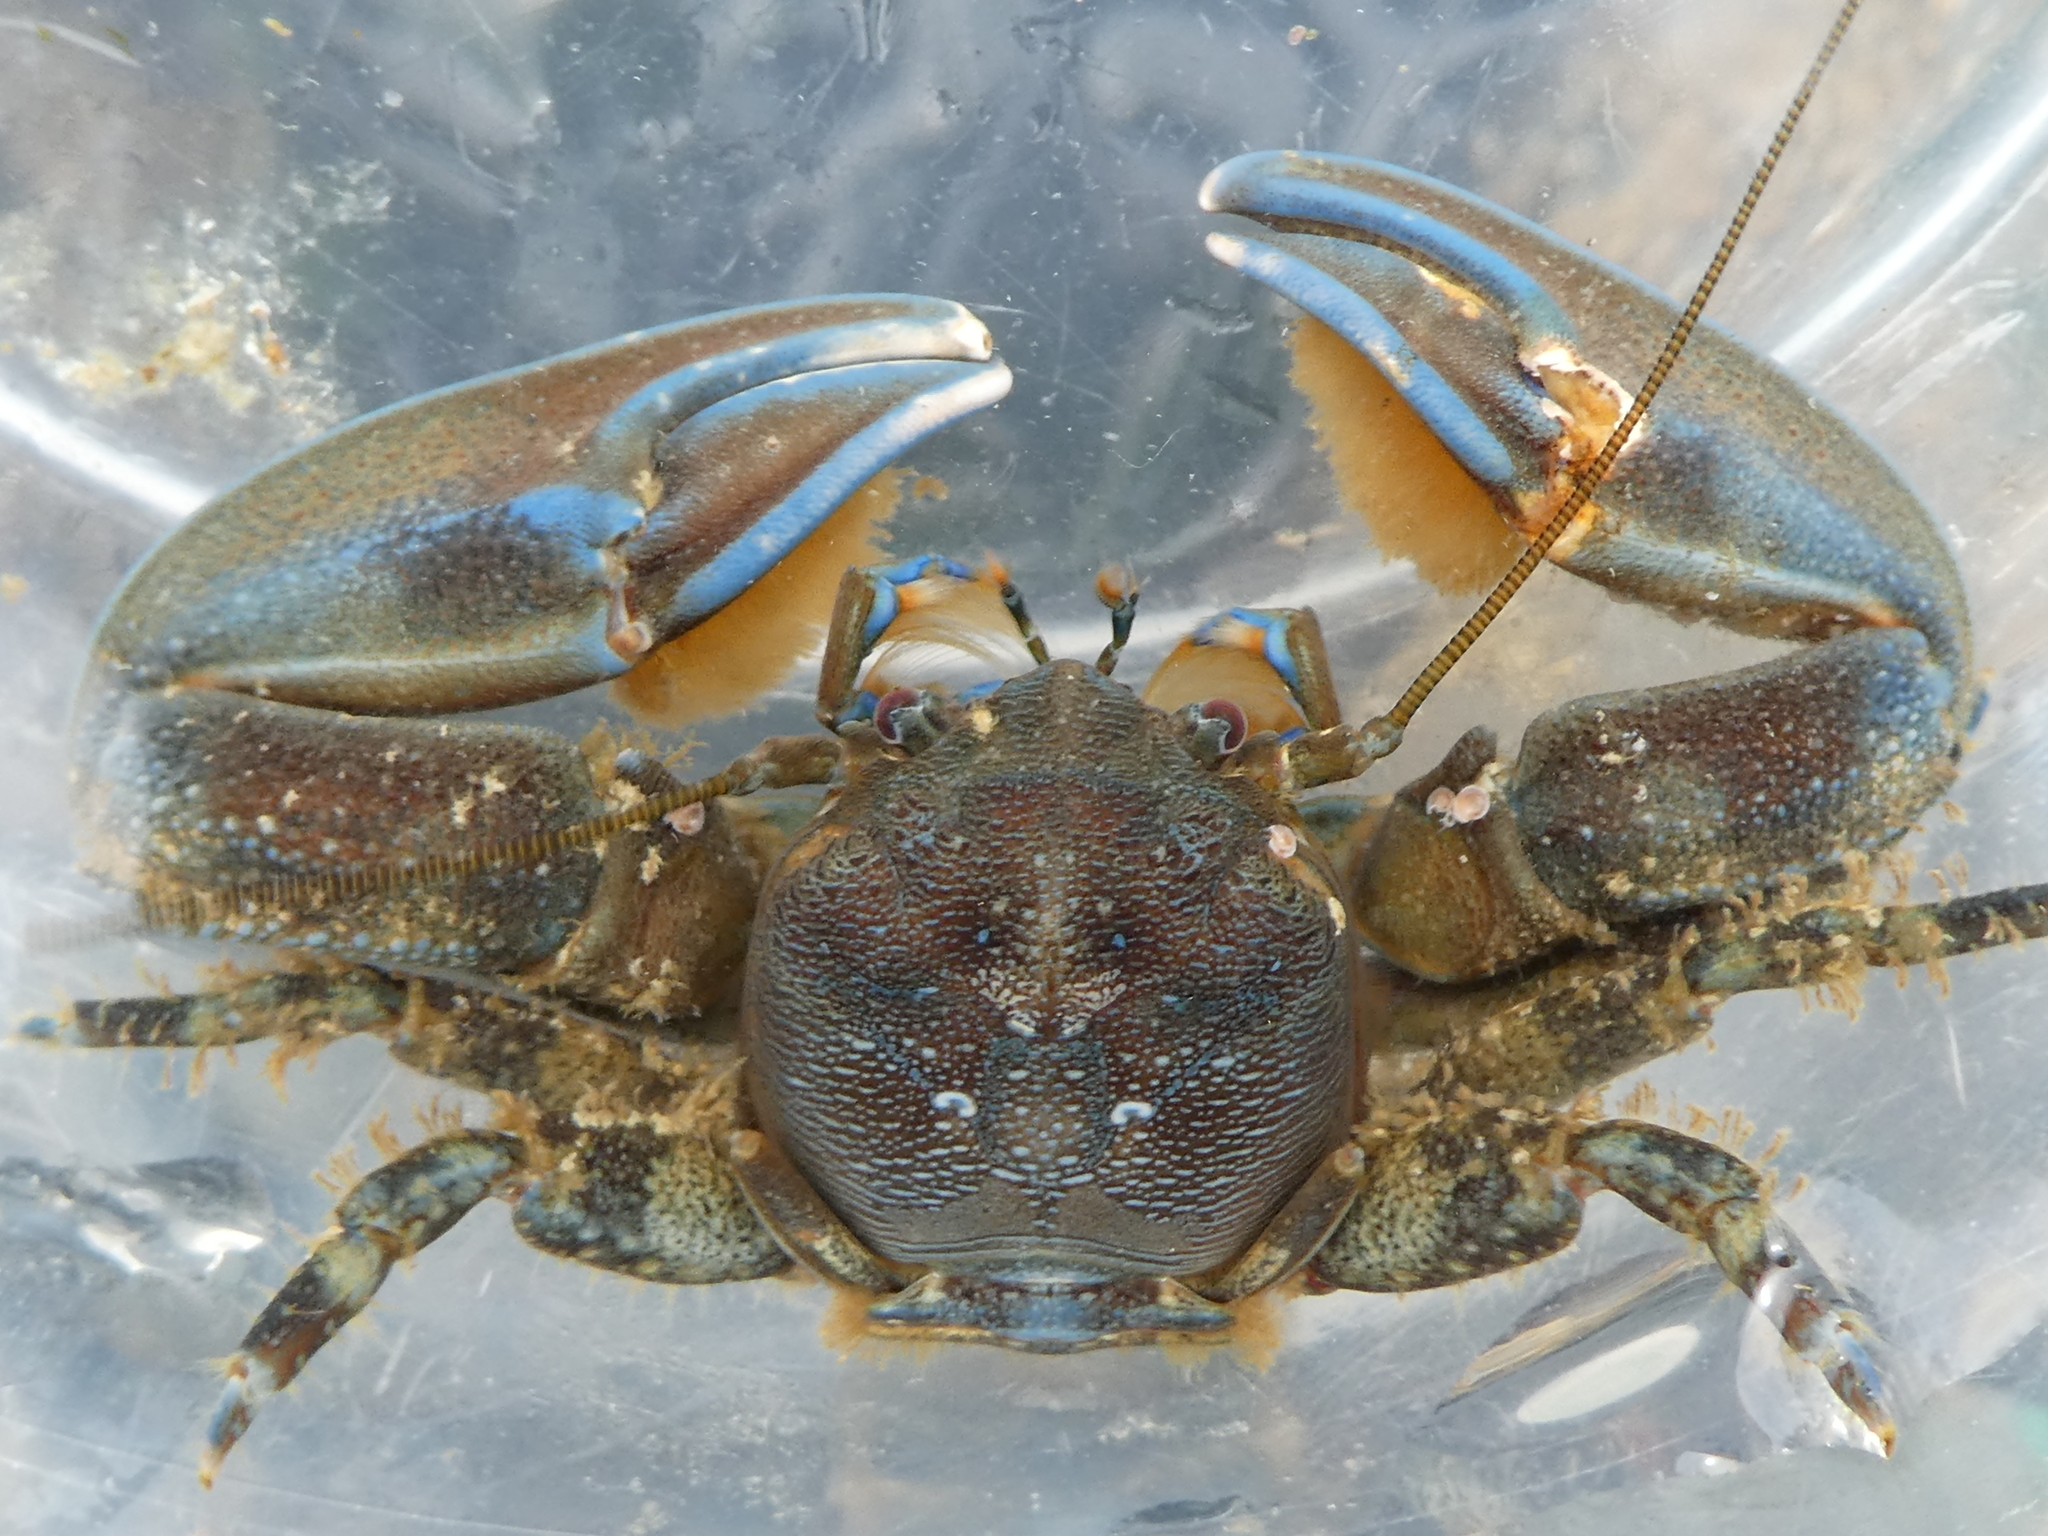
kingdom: Animalia
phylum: Arthropoda
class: Malacostraca
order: Decapoda
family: Porcellanidae
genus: Petrolisthes
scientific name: Petrolisthes eriomerus
